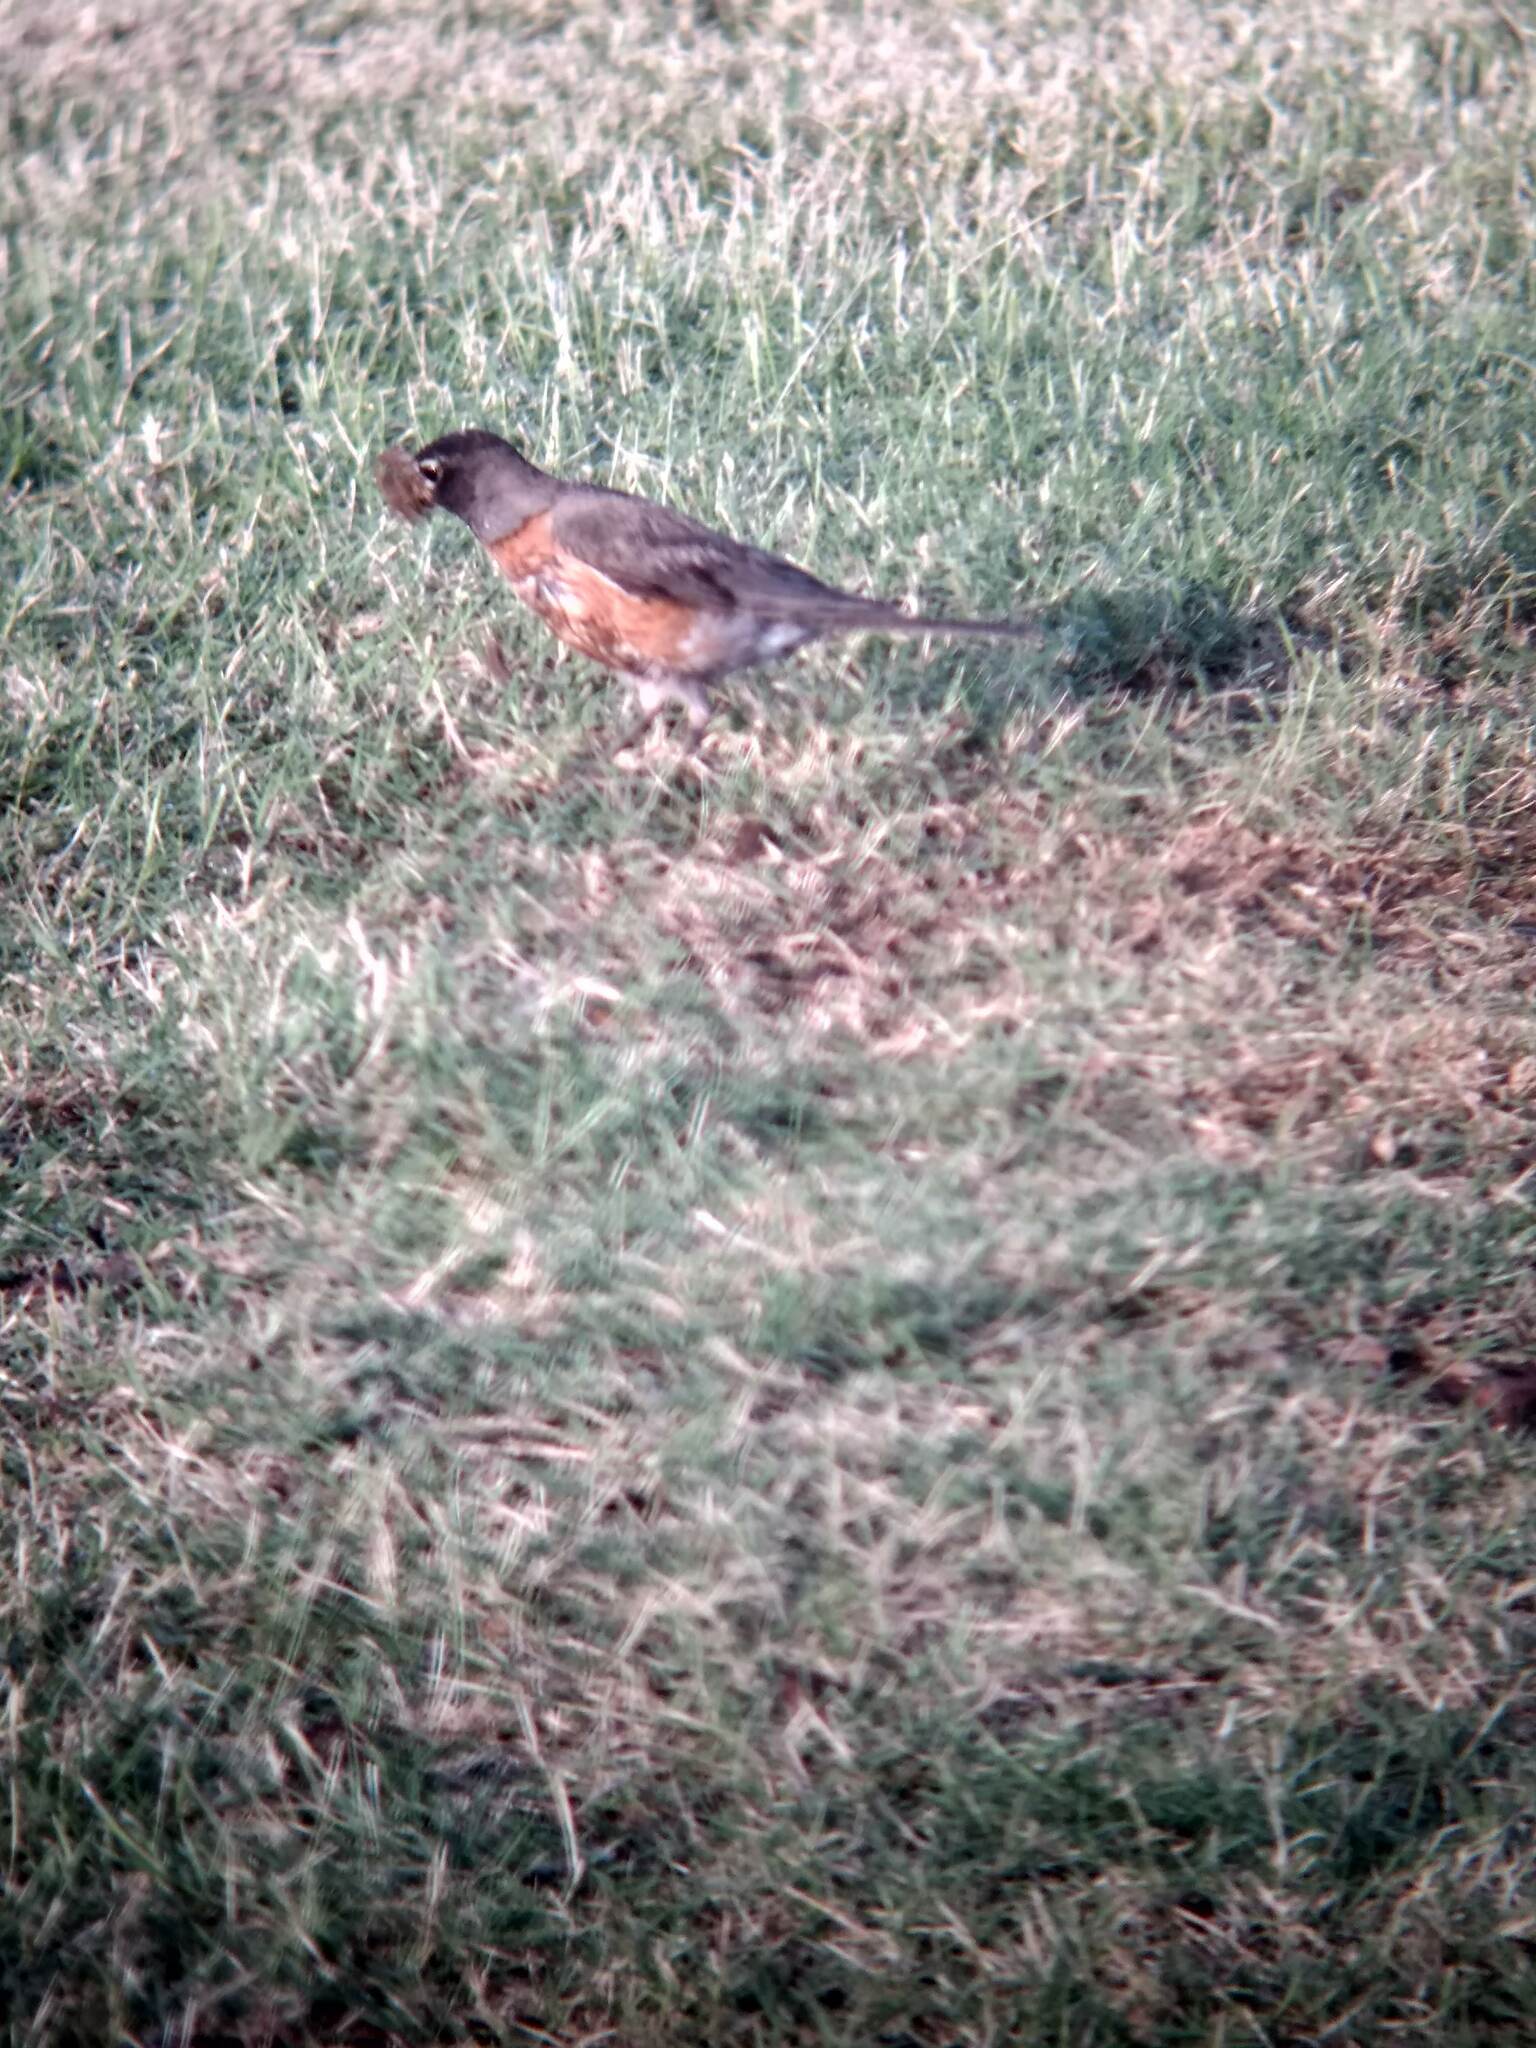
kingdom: Animalia
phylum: Chordata
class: Aves
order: Passeriformes
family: Turdidae
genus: Turdus
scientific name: Turdus migratorius
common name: American robin
